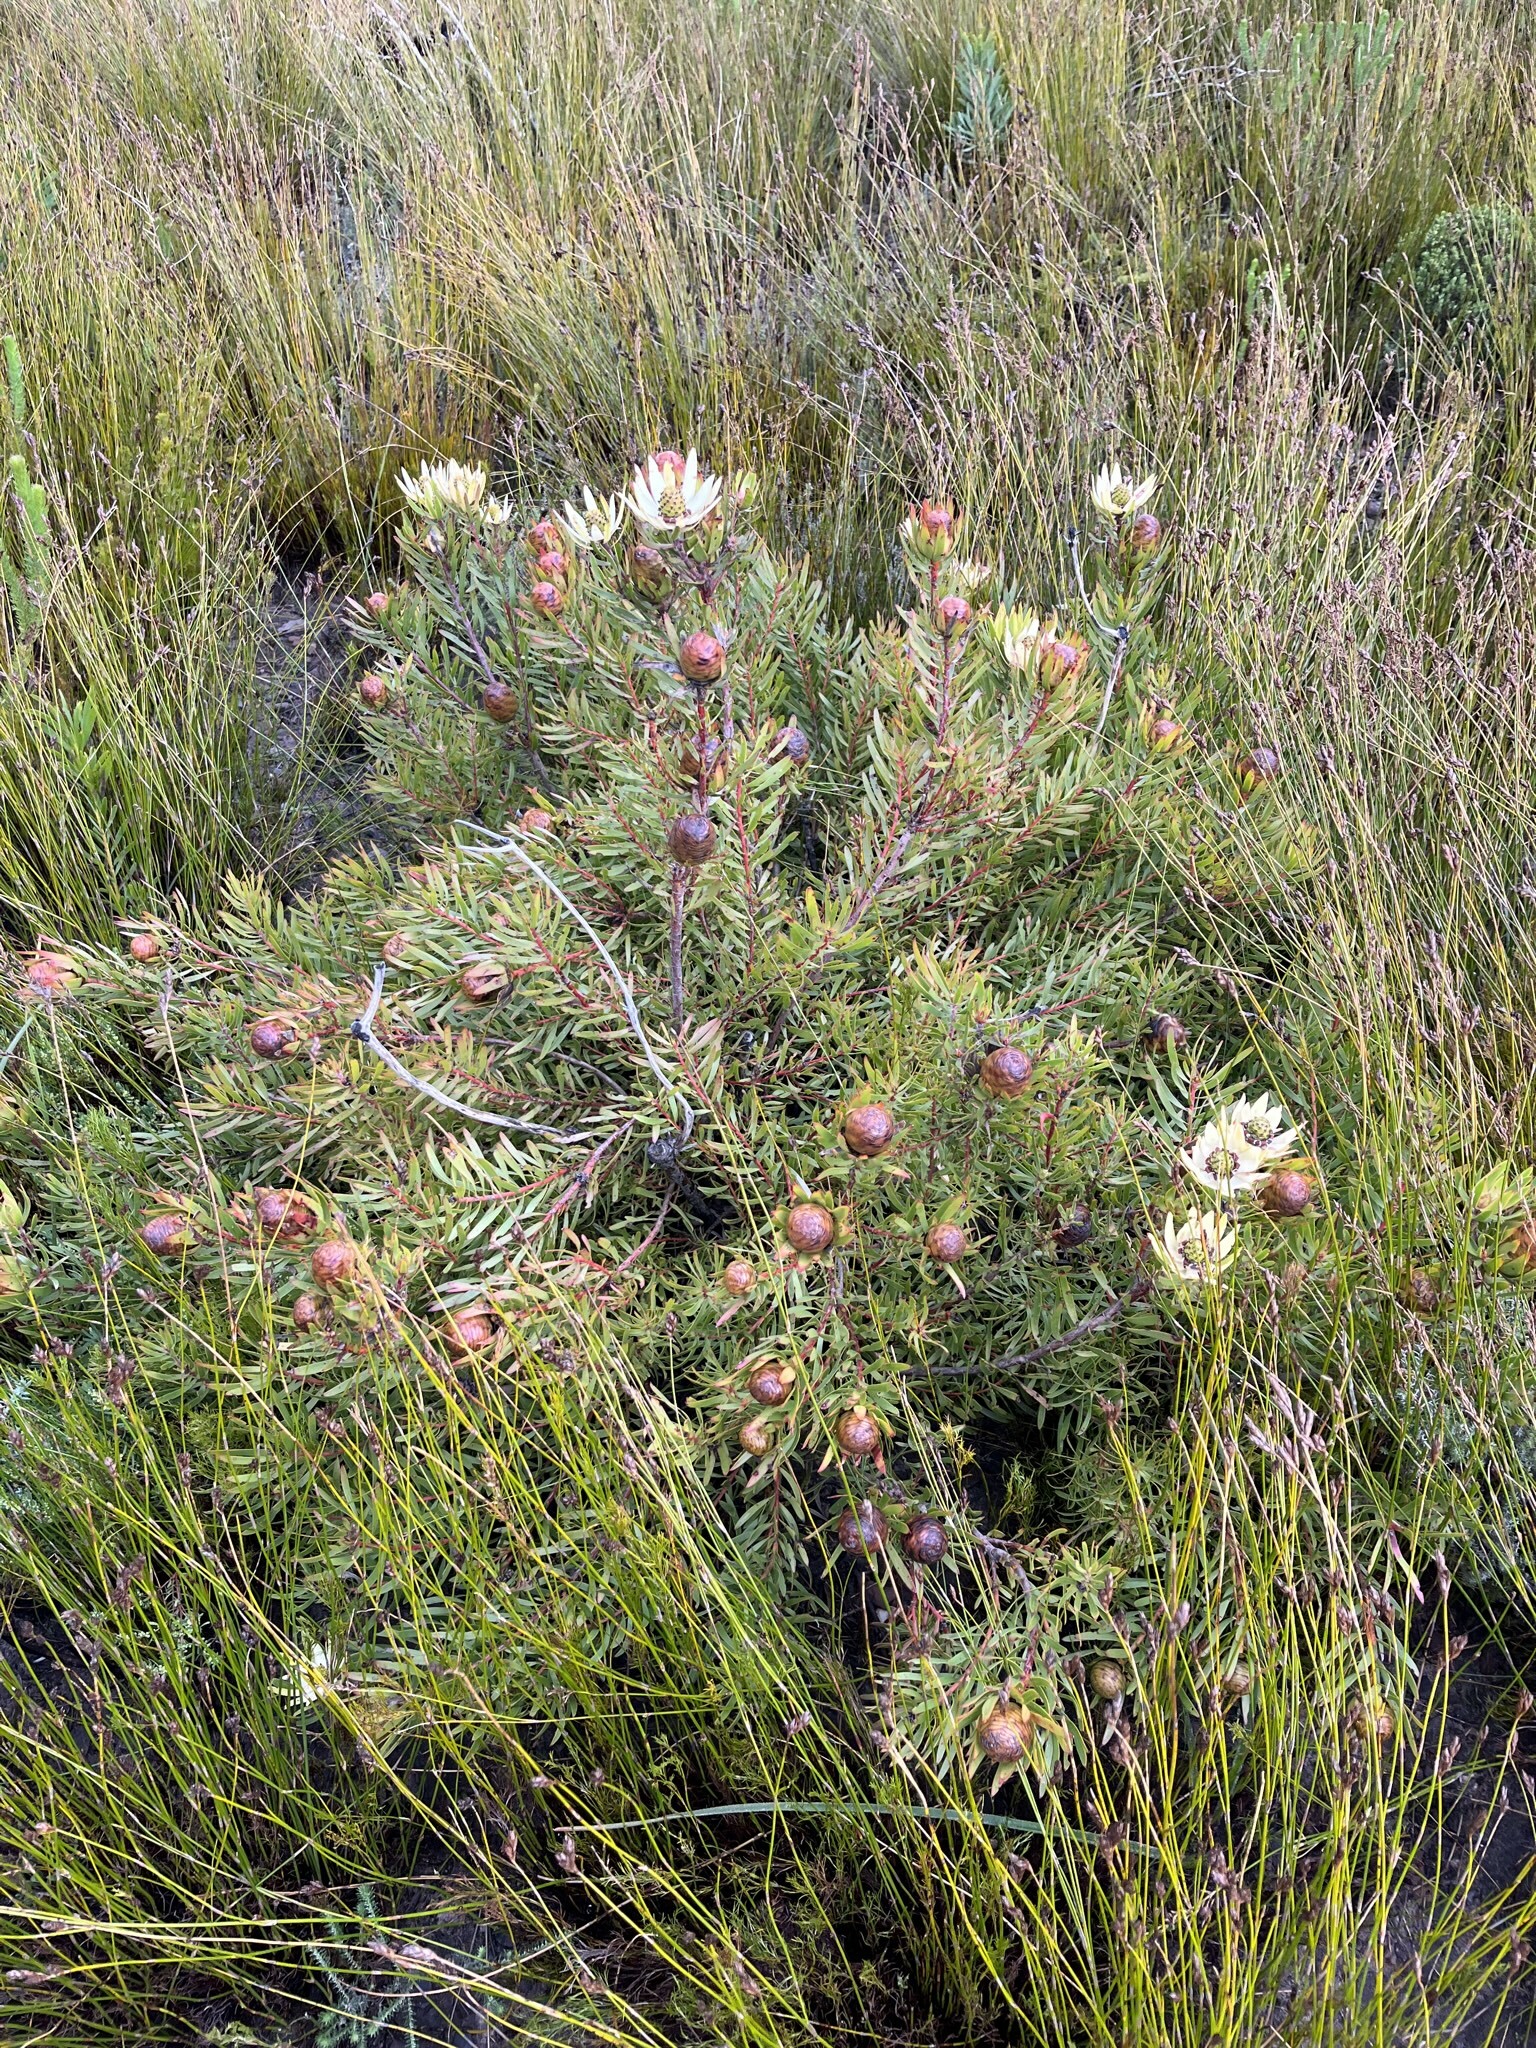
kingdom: Plantae
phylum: Tracheophyta
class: Magnoliopsida
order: Proteales
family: Proteaceae
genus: Leucadendron
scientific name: Leucadendron spissifolium
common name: Spear-leaf conebush
